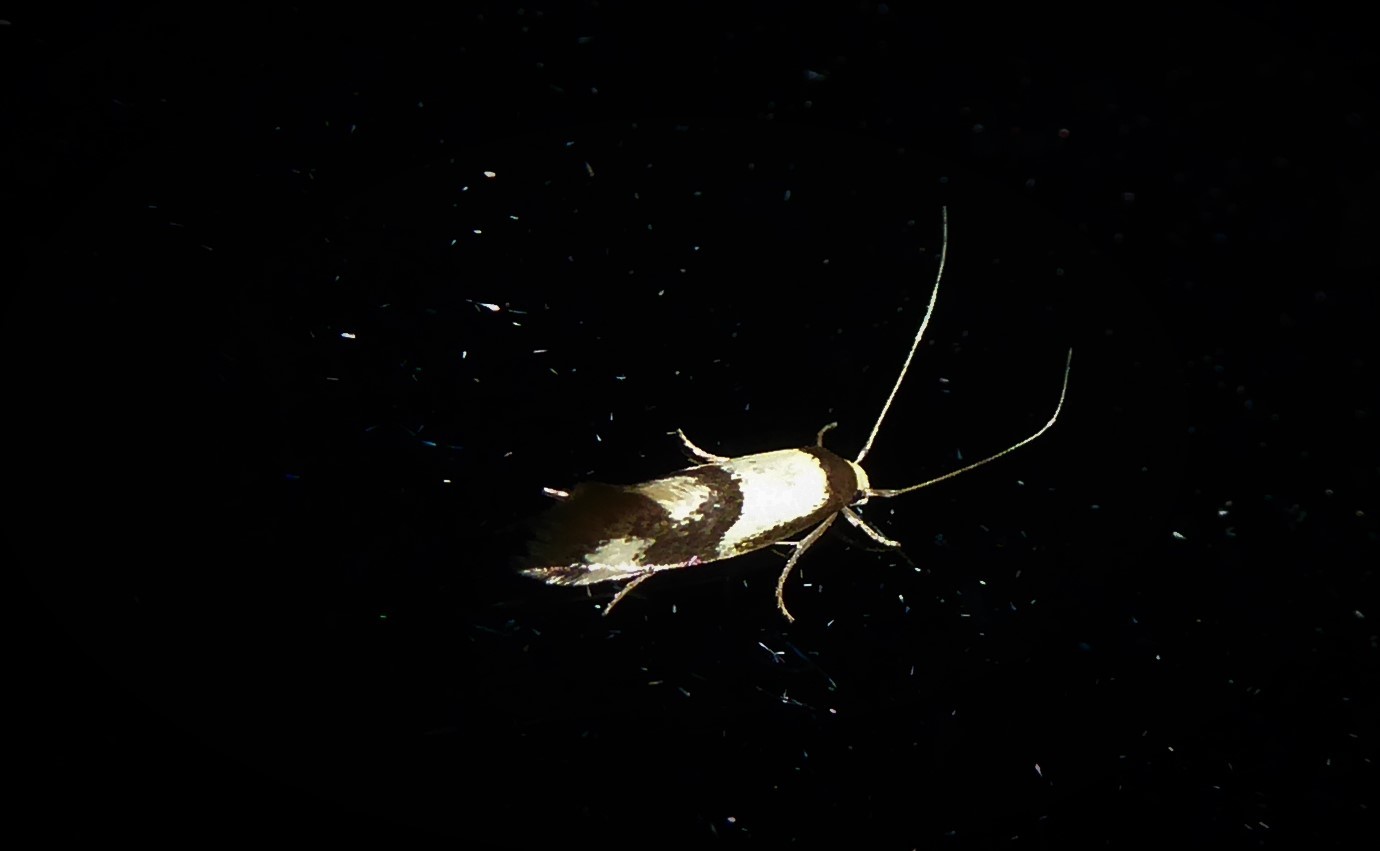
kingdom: Animalia
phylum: Arthropoda
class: Insecta
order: Lepidoptera
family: Tineidae
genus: Opogona
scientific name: Opogona comptella
